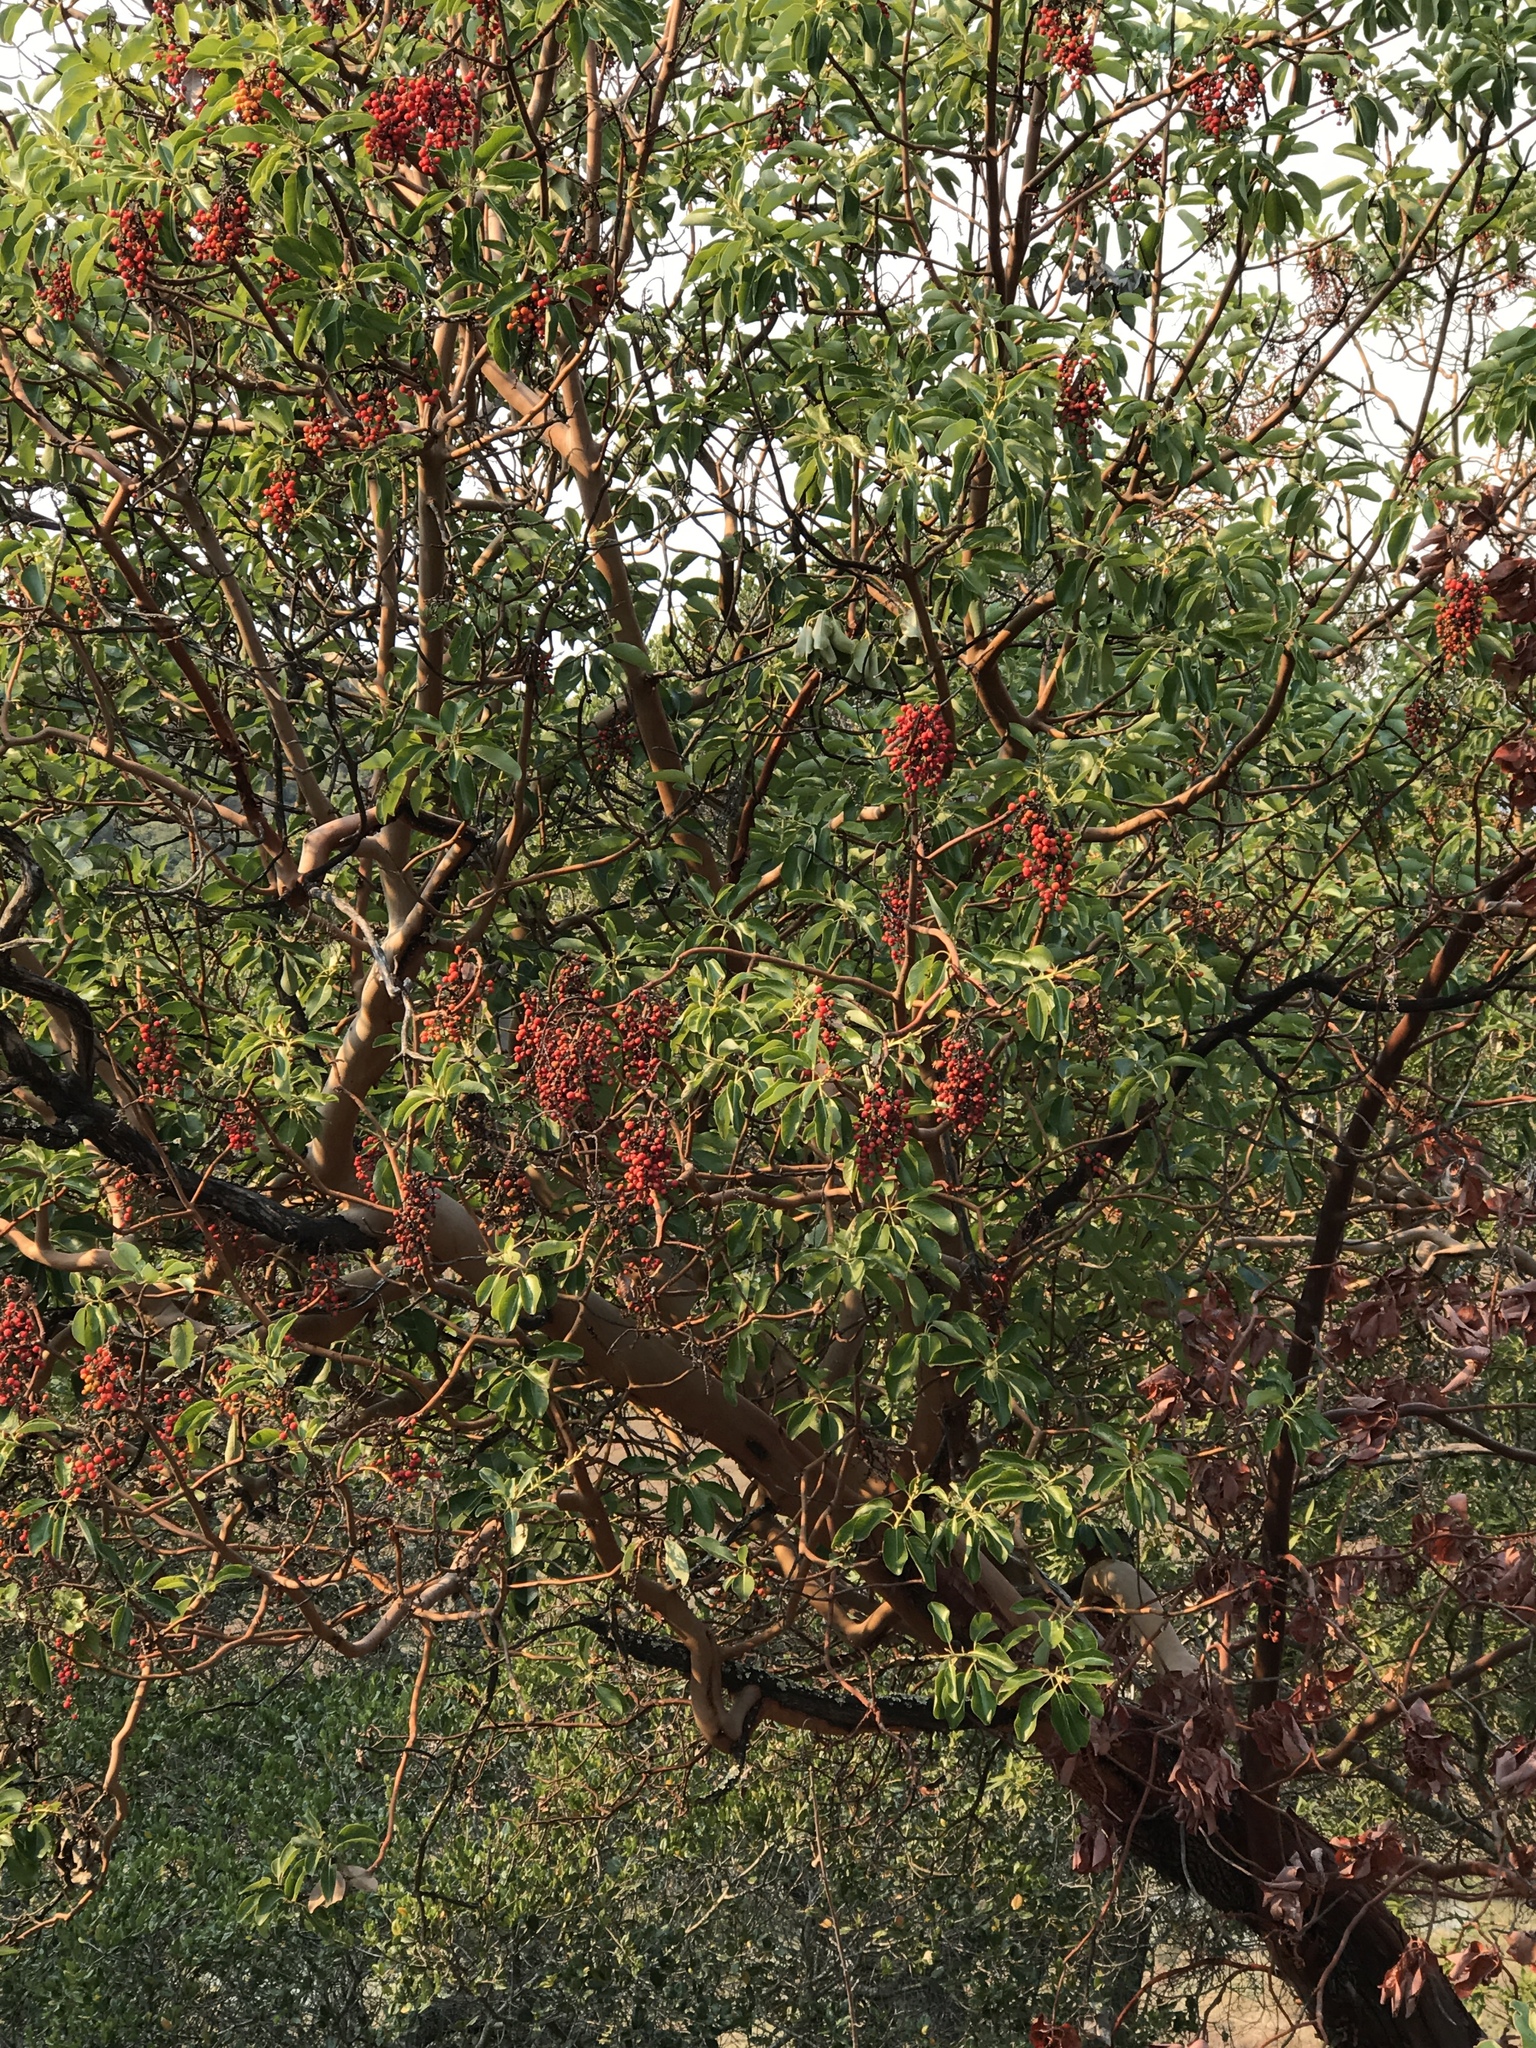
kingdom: Plantae
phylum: Tracheophyta
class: Magnoliopsida
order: Ericales
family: Ericaceae
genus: Arbutus
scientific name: Arbutus menziesii
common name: Pacific madrone
